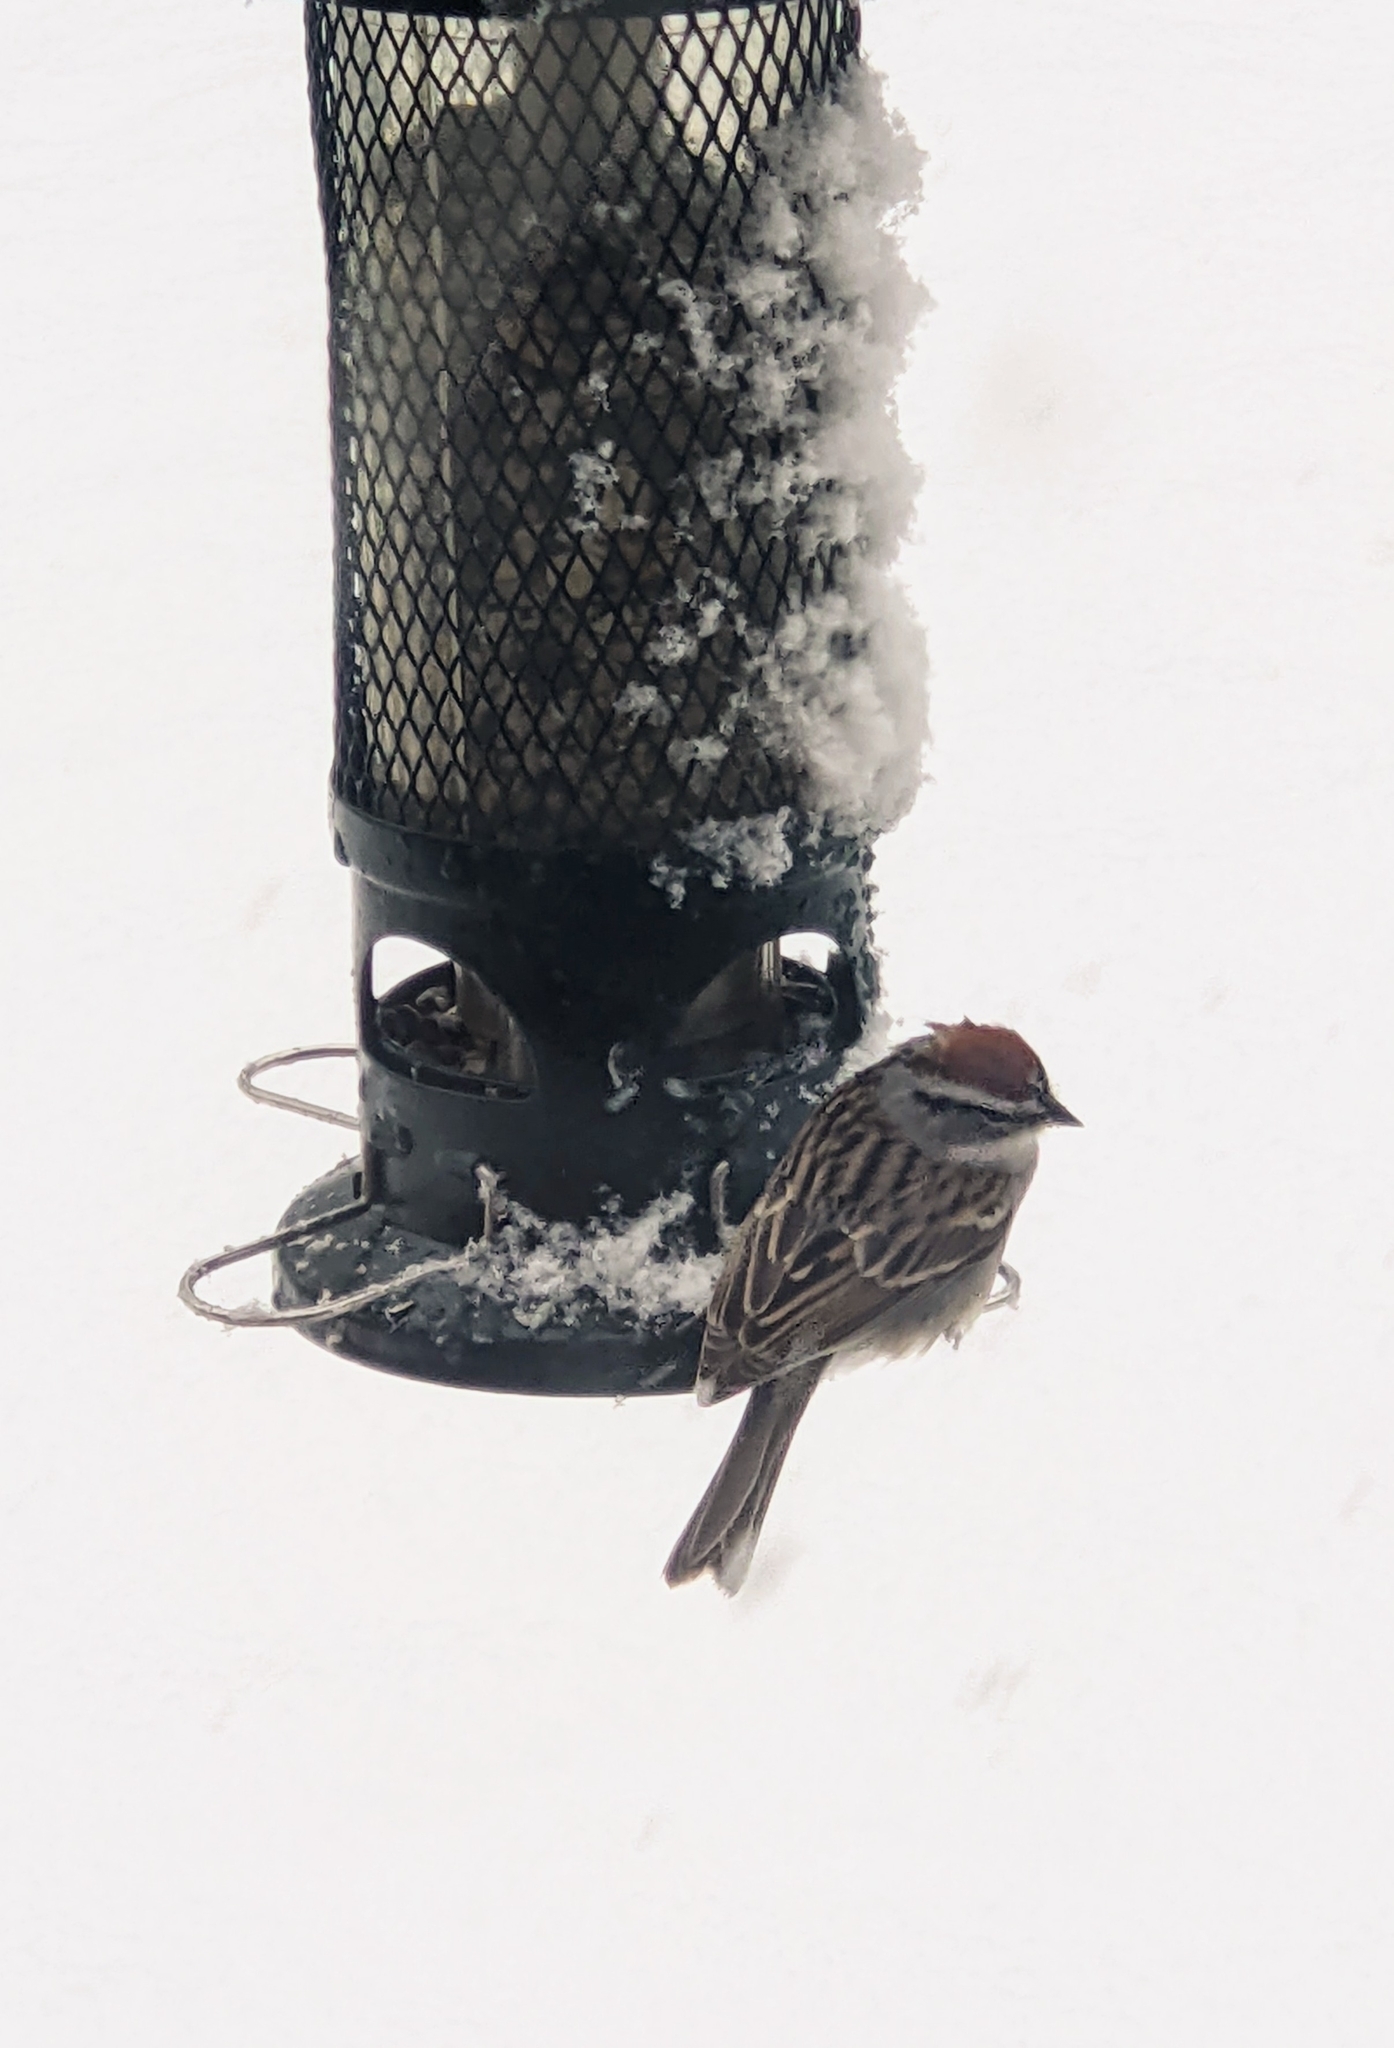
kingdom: Animalia
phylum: Chordata
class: Aves
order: Passeriformes
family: Passerellidae
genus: Spizella
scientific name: Spizella passerina
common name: Chipping sparrow
